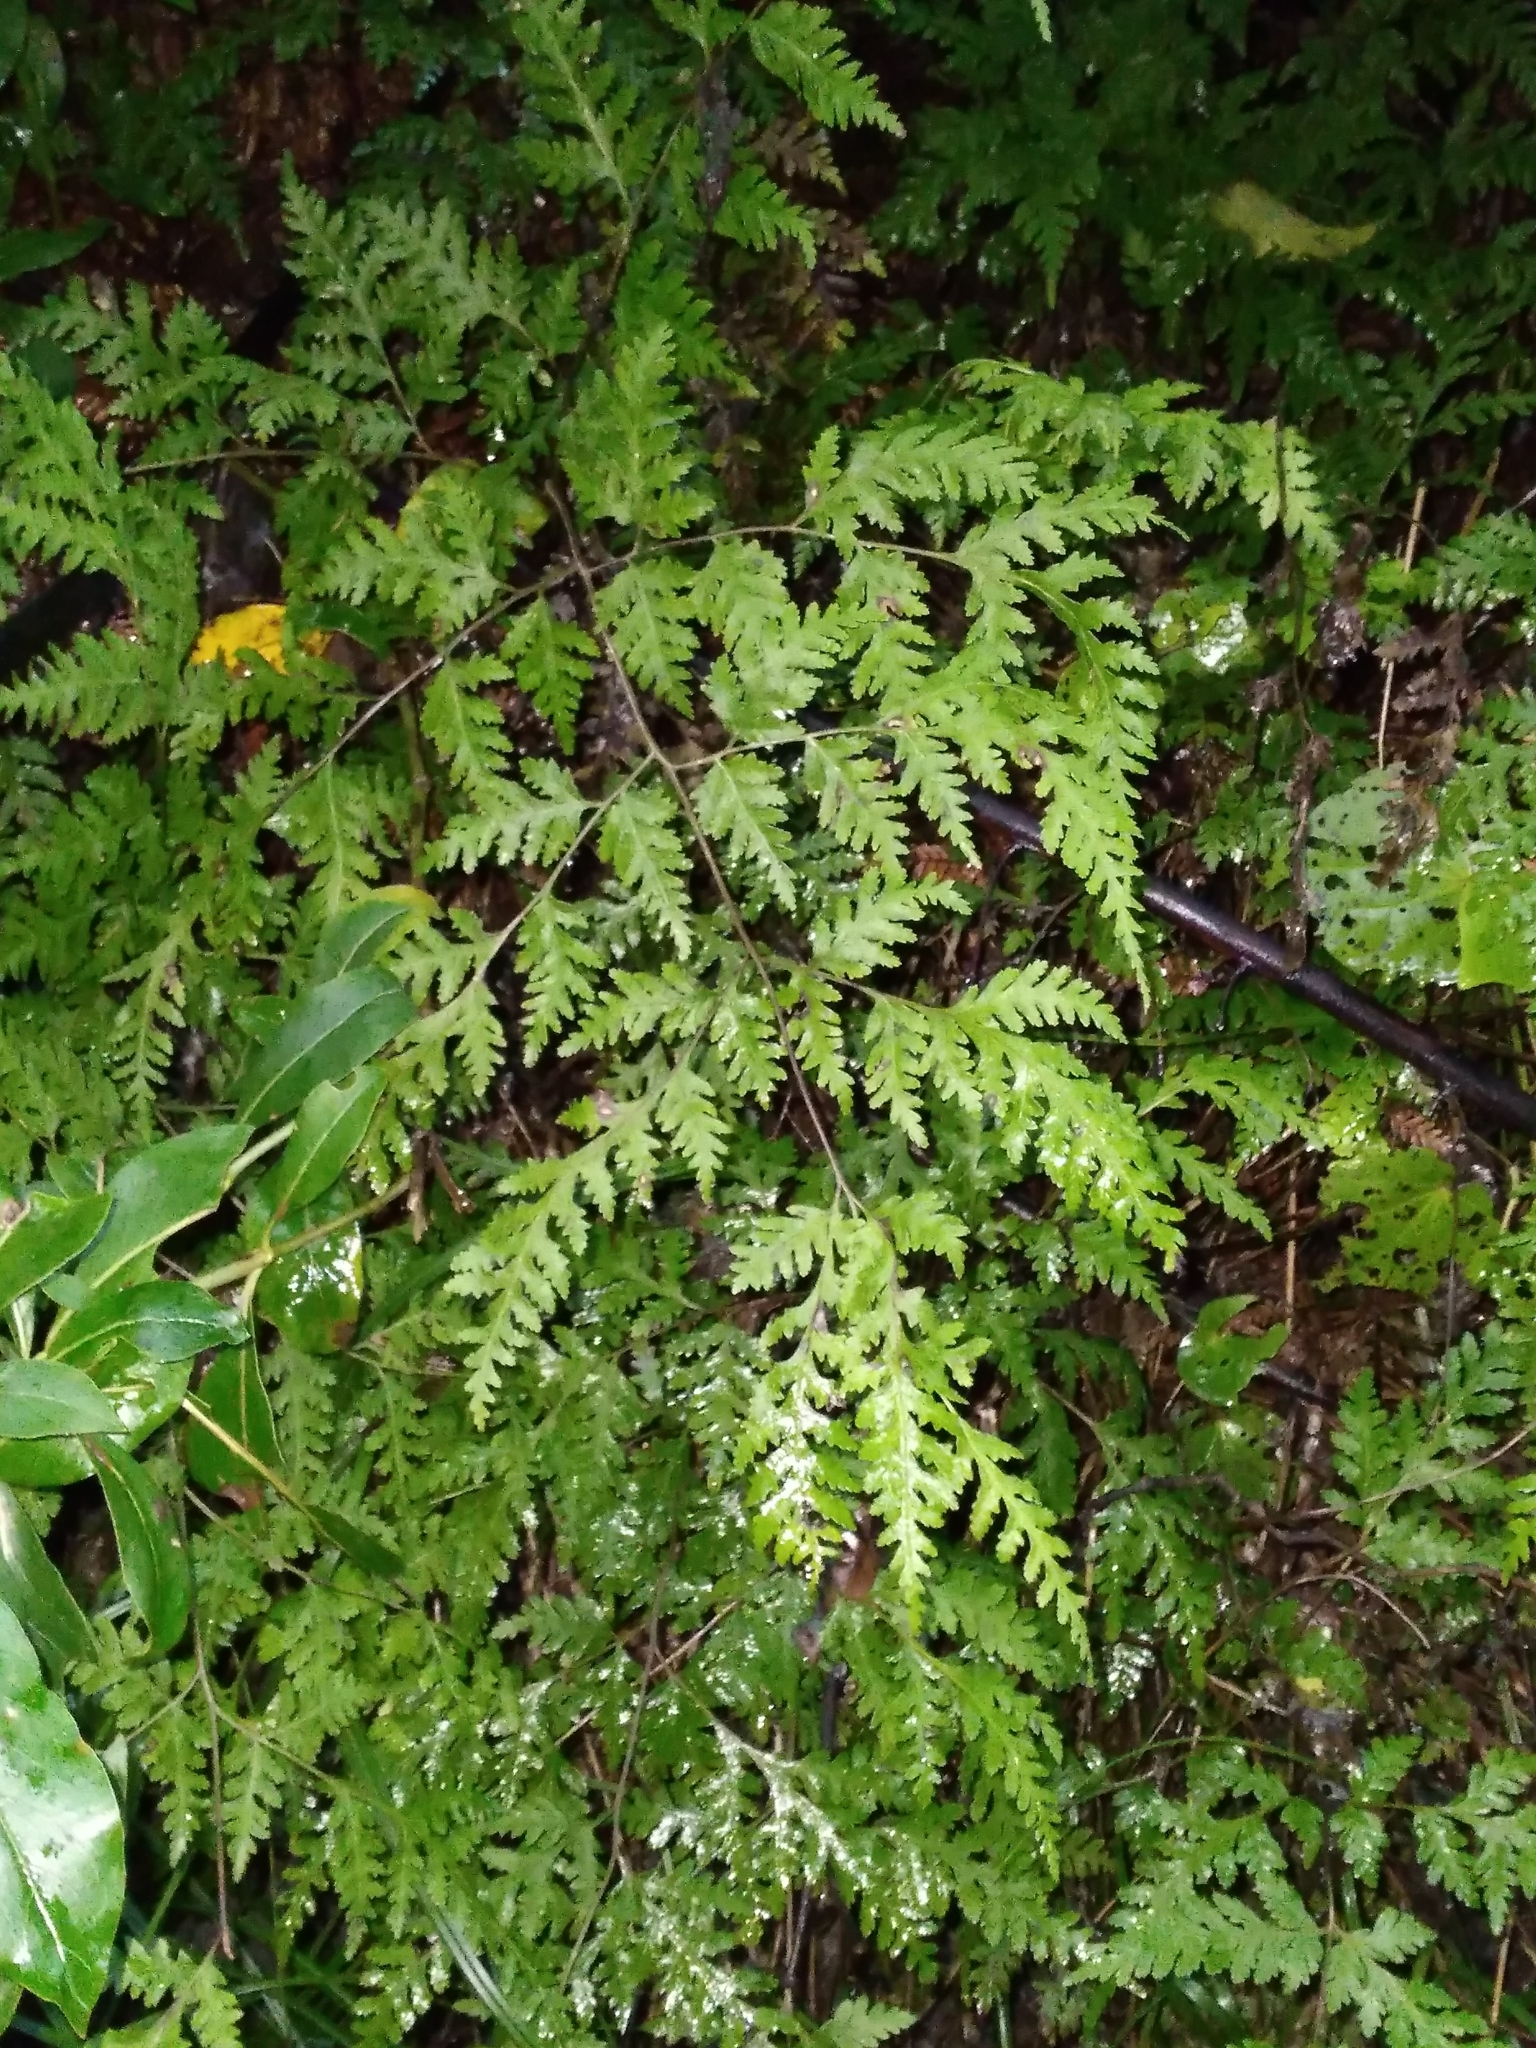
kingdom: Plantae
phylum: Tracheophyta
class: Polypodiopsida
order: Polypodiales
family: Pteridaceae
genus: Pteris
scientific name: Pteris macilenta
